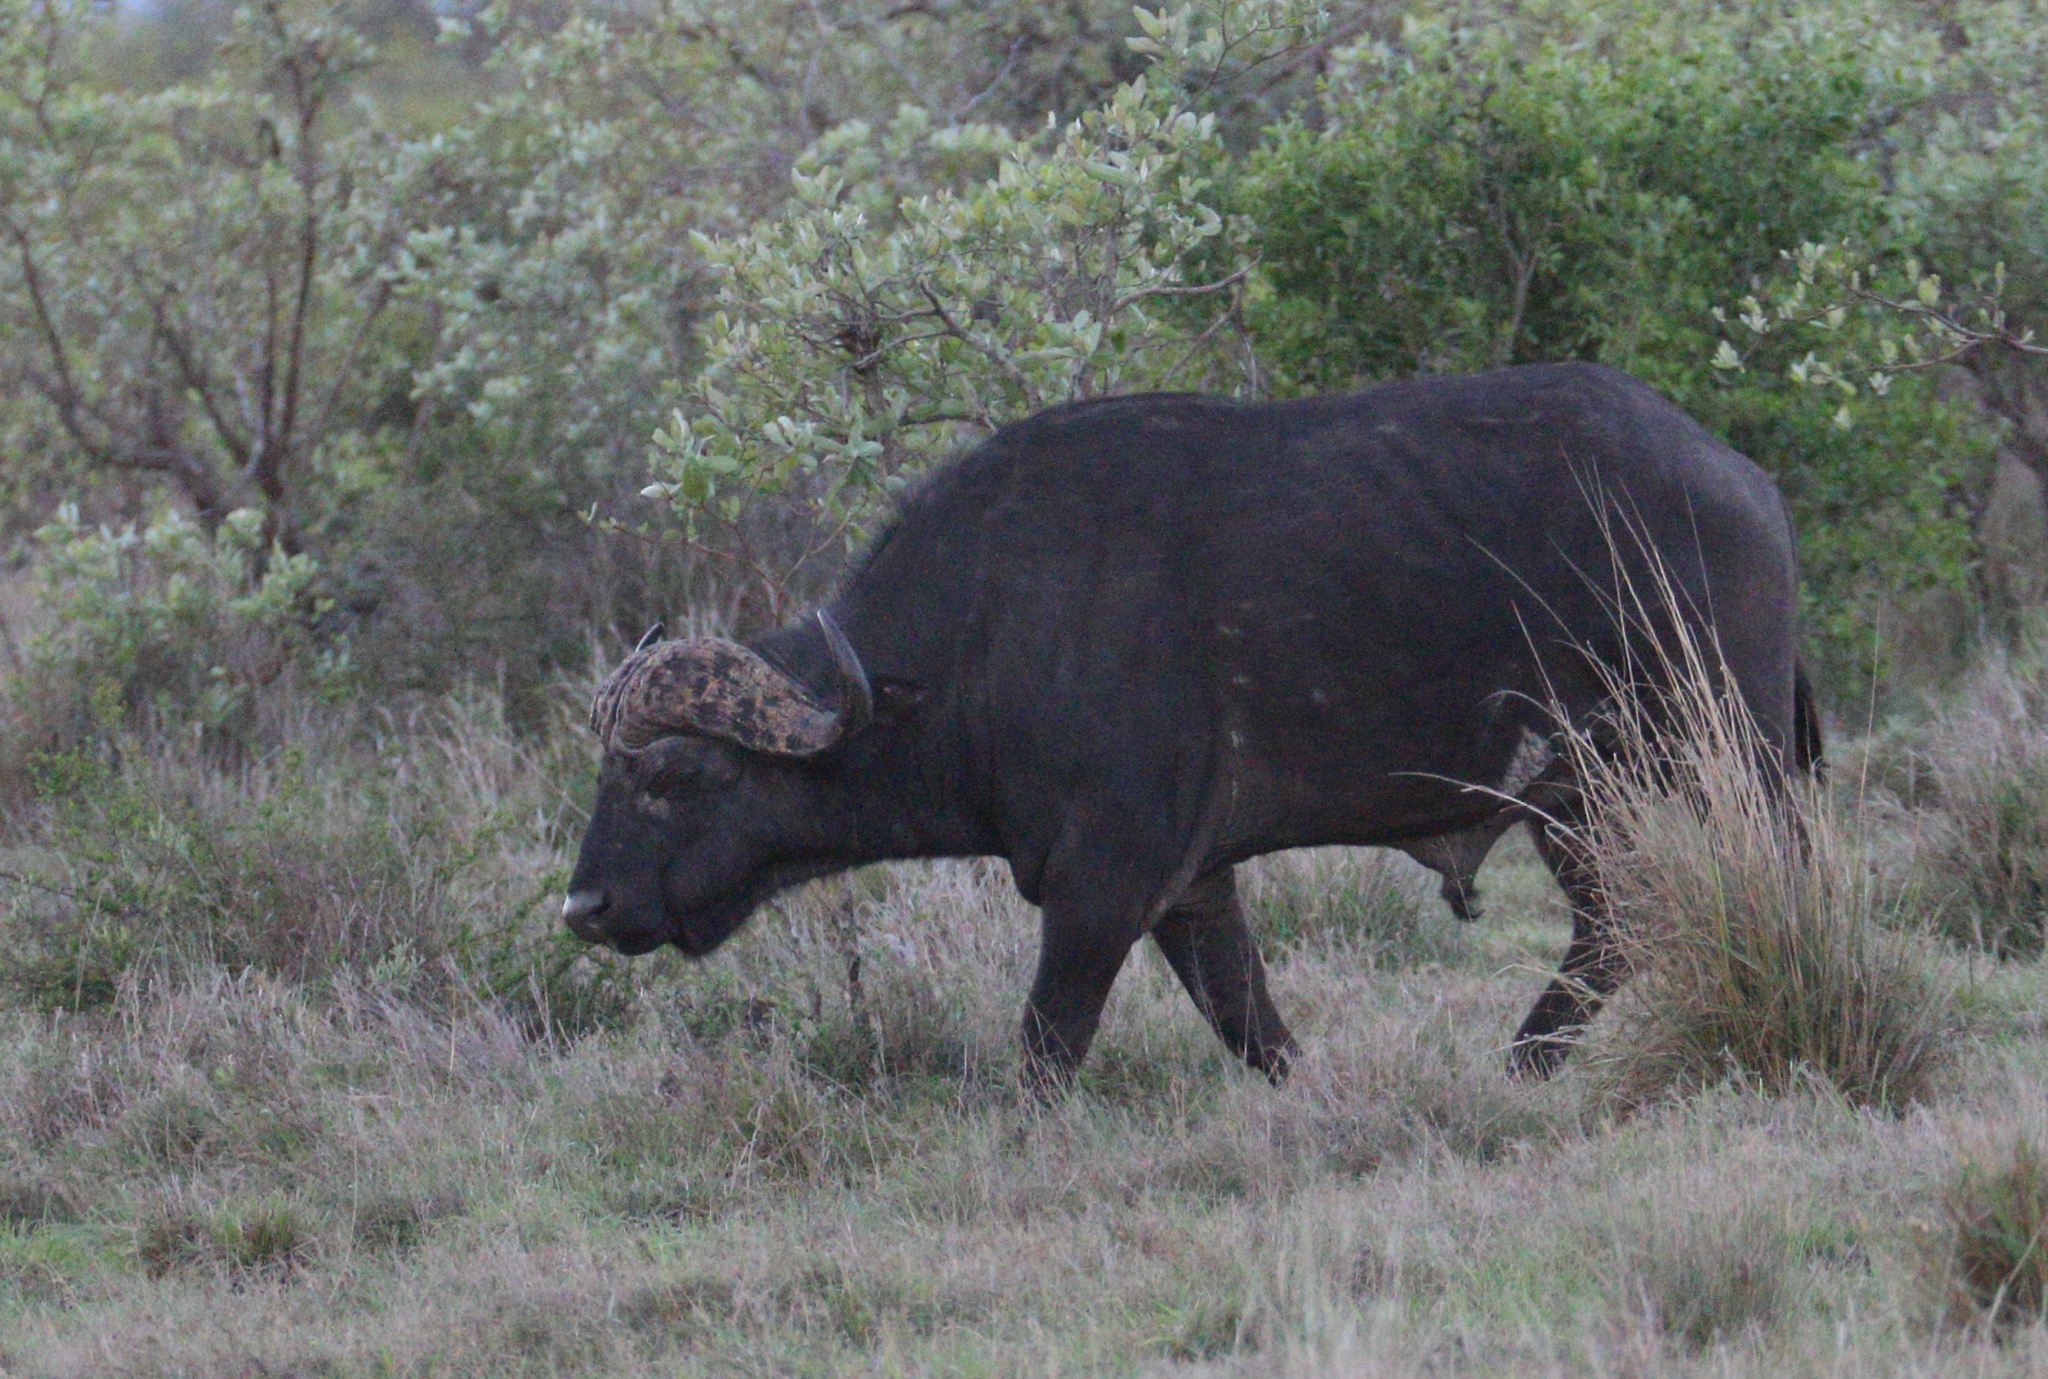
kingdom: Animalia
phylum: Chordata
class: Mammalia
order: Artiodactyla
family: Bovidae
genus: Syncerus
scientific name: Syncerus caffer
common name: African buffalo
